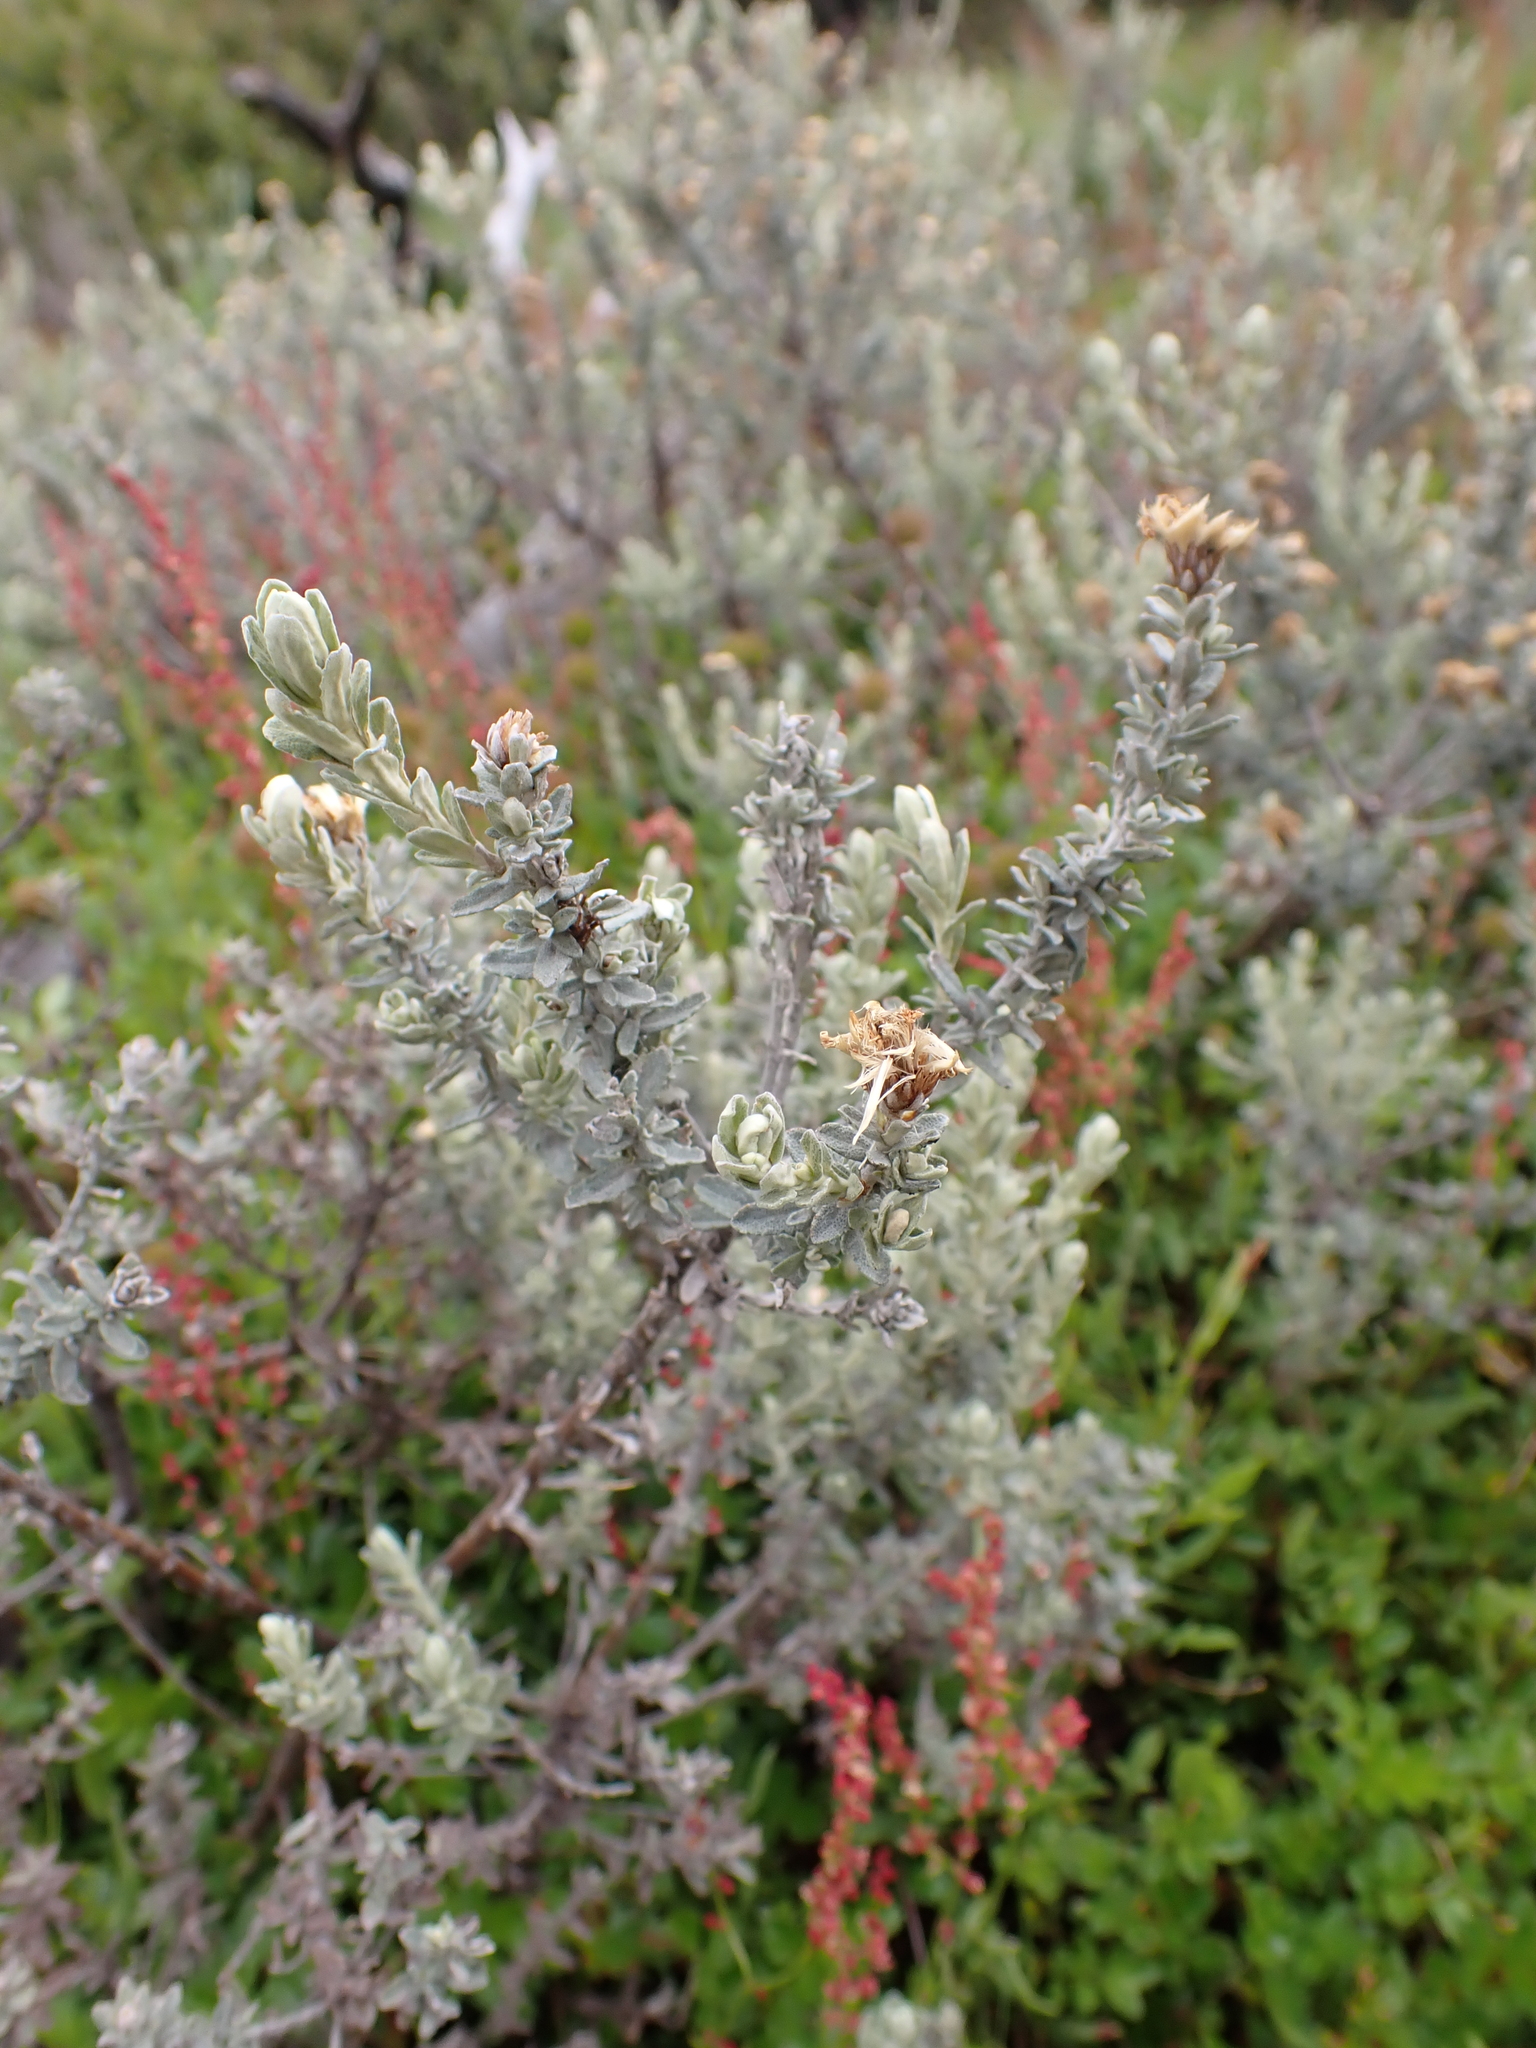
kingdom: Plantae
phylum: Tracheophyta
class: Magnoliopsida
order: Asterales
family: Asteraceae
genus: Olearia
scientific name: Olearia brevipedunculata
